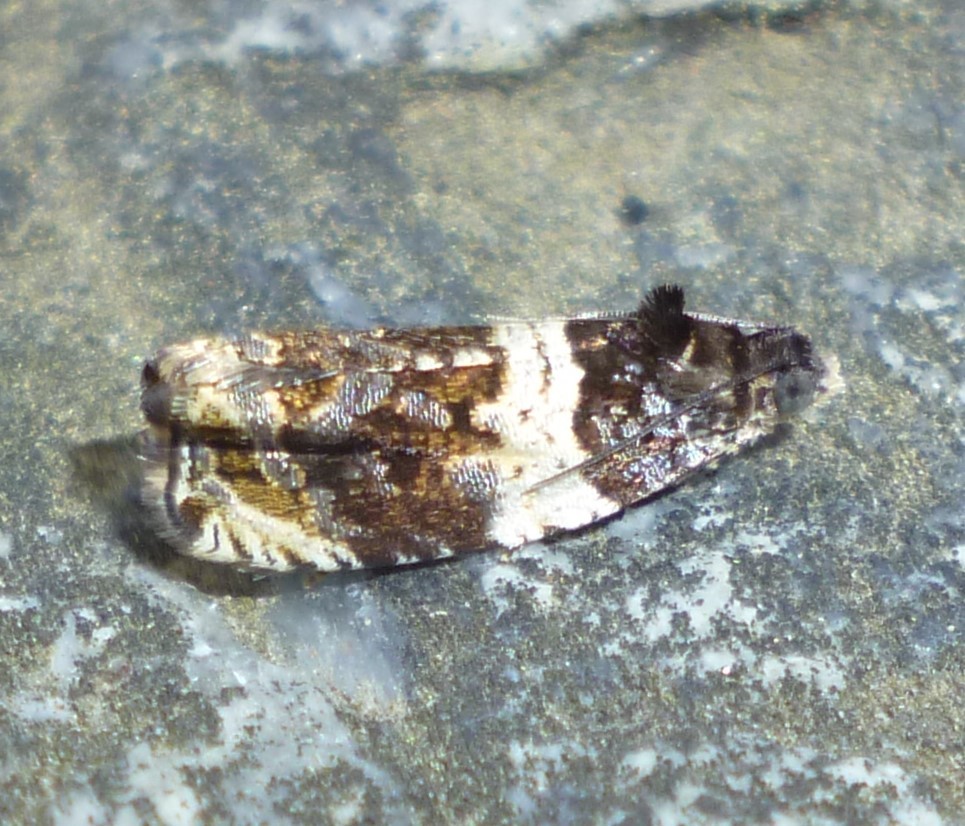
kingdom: Animalia
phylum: Arthropoda
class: Insecta
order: Lepidoptera
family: Tortricidae
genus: Olethreutes
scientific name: Olethreutes fasciatana
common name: Banded olethreutes moth
